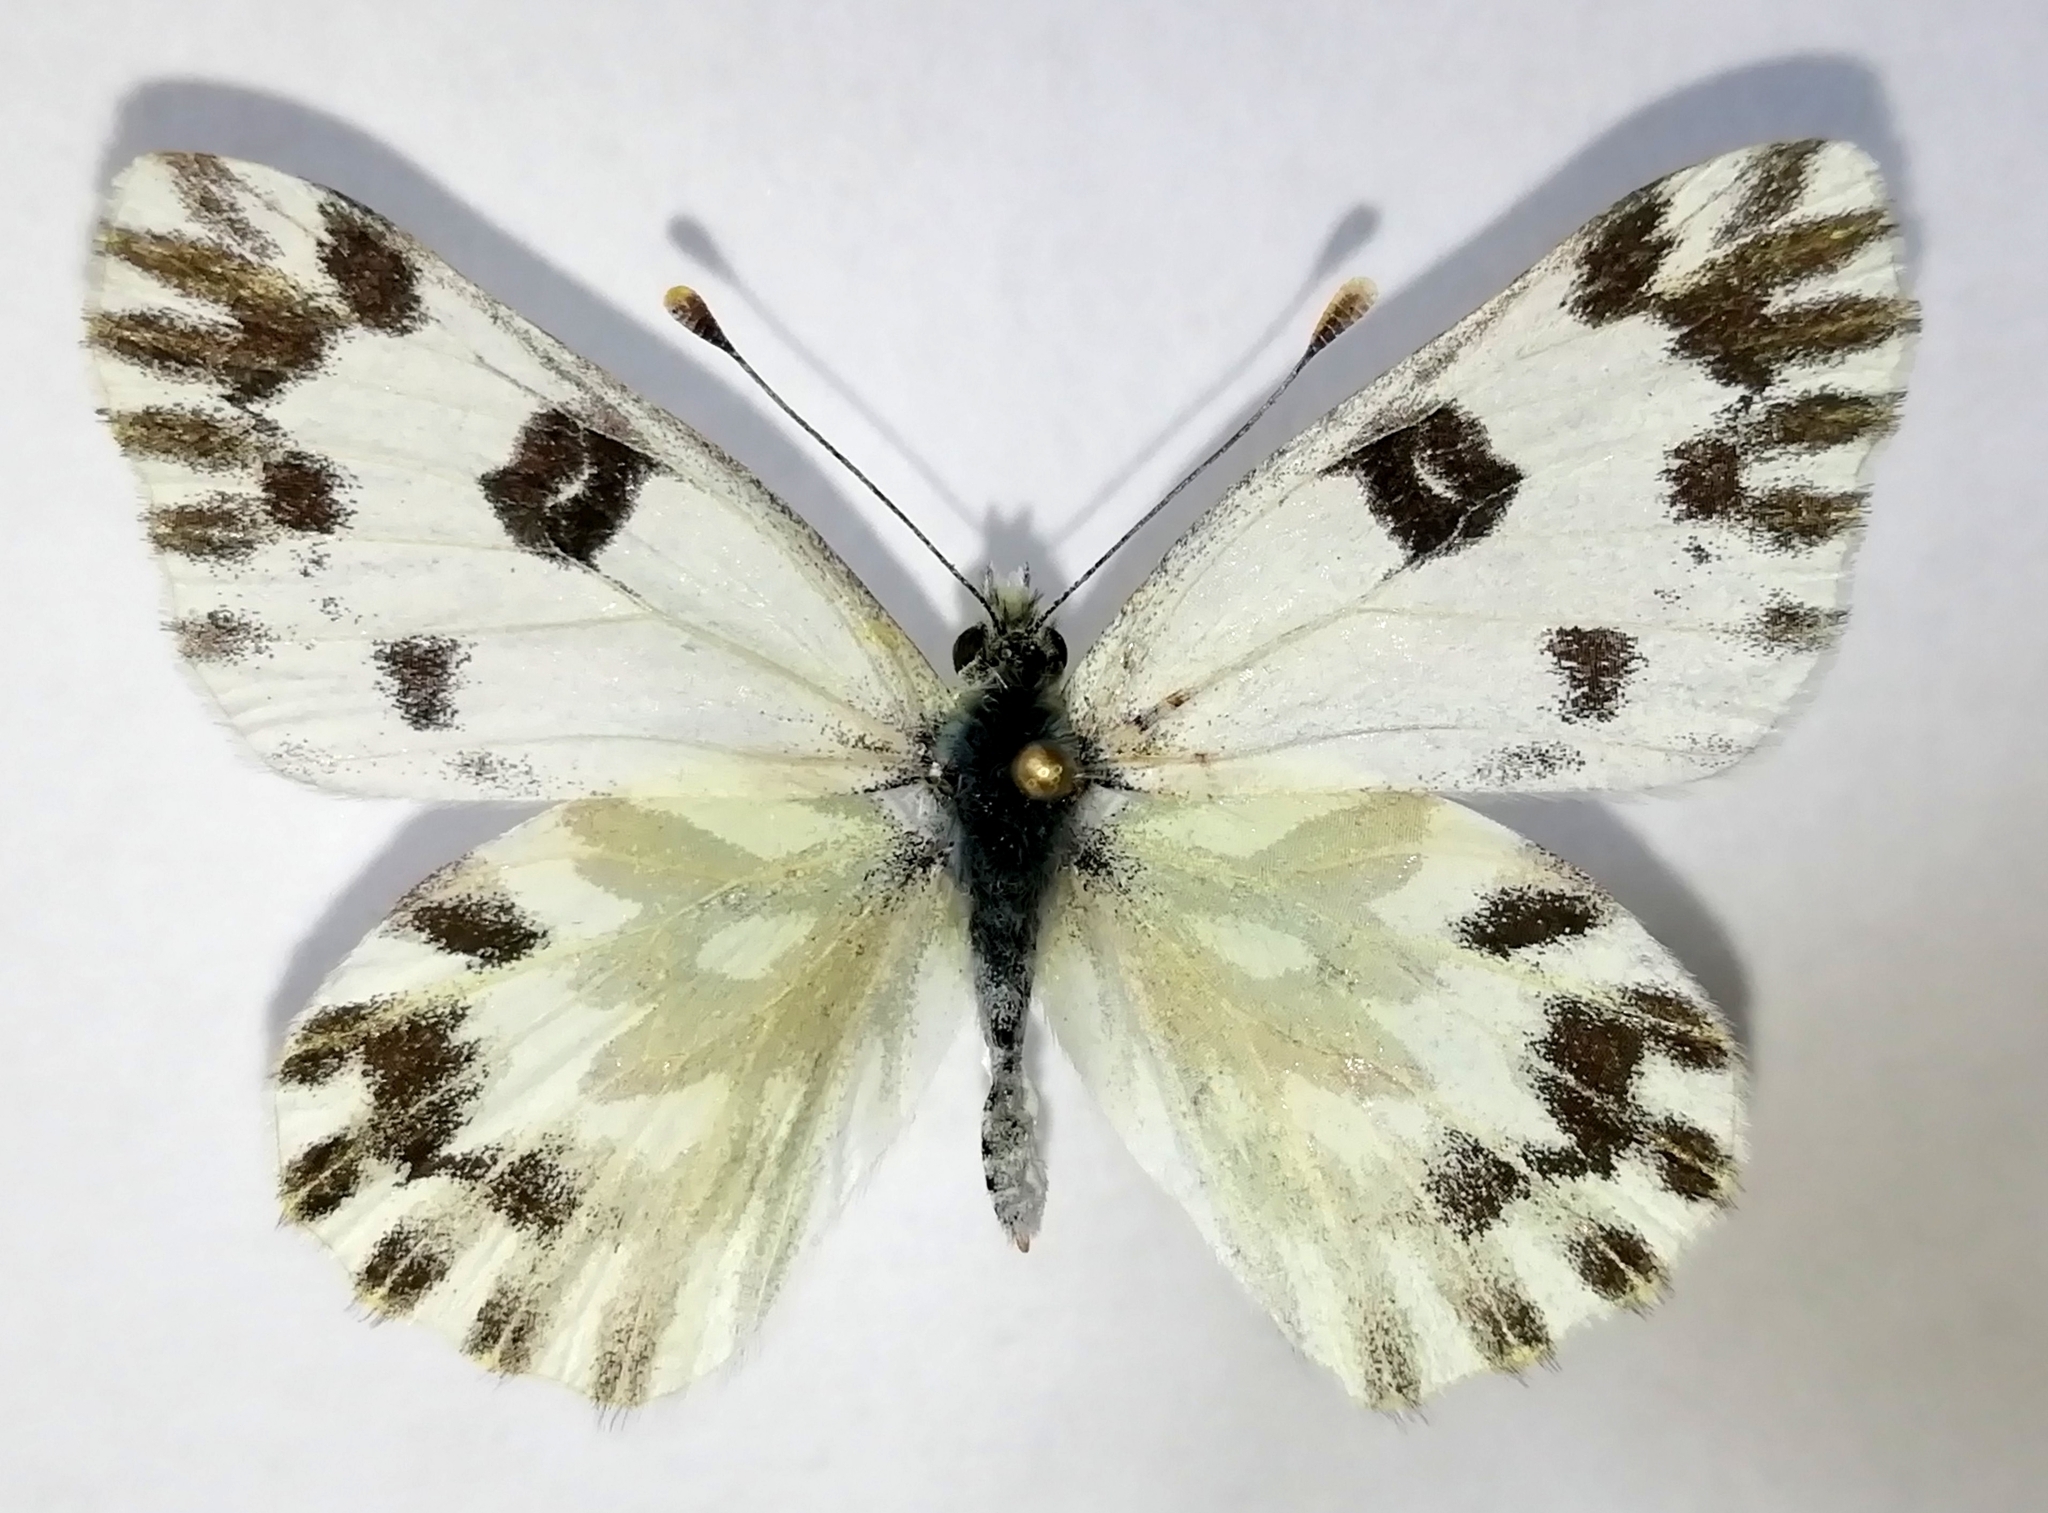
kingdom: Animalia
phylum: Arthropoda
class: Insecta
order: Lepidoptera
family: Pieridae
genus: Pontia
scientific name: Pontia chloridice
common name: Small bath white
